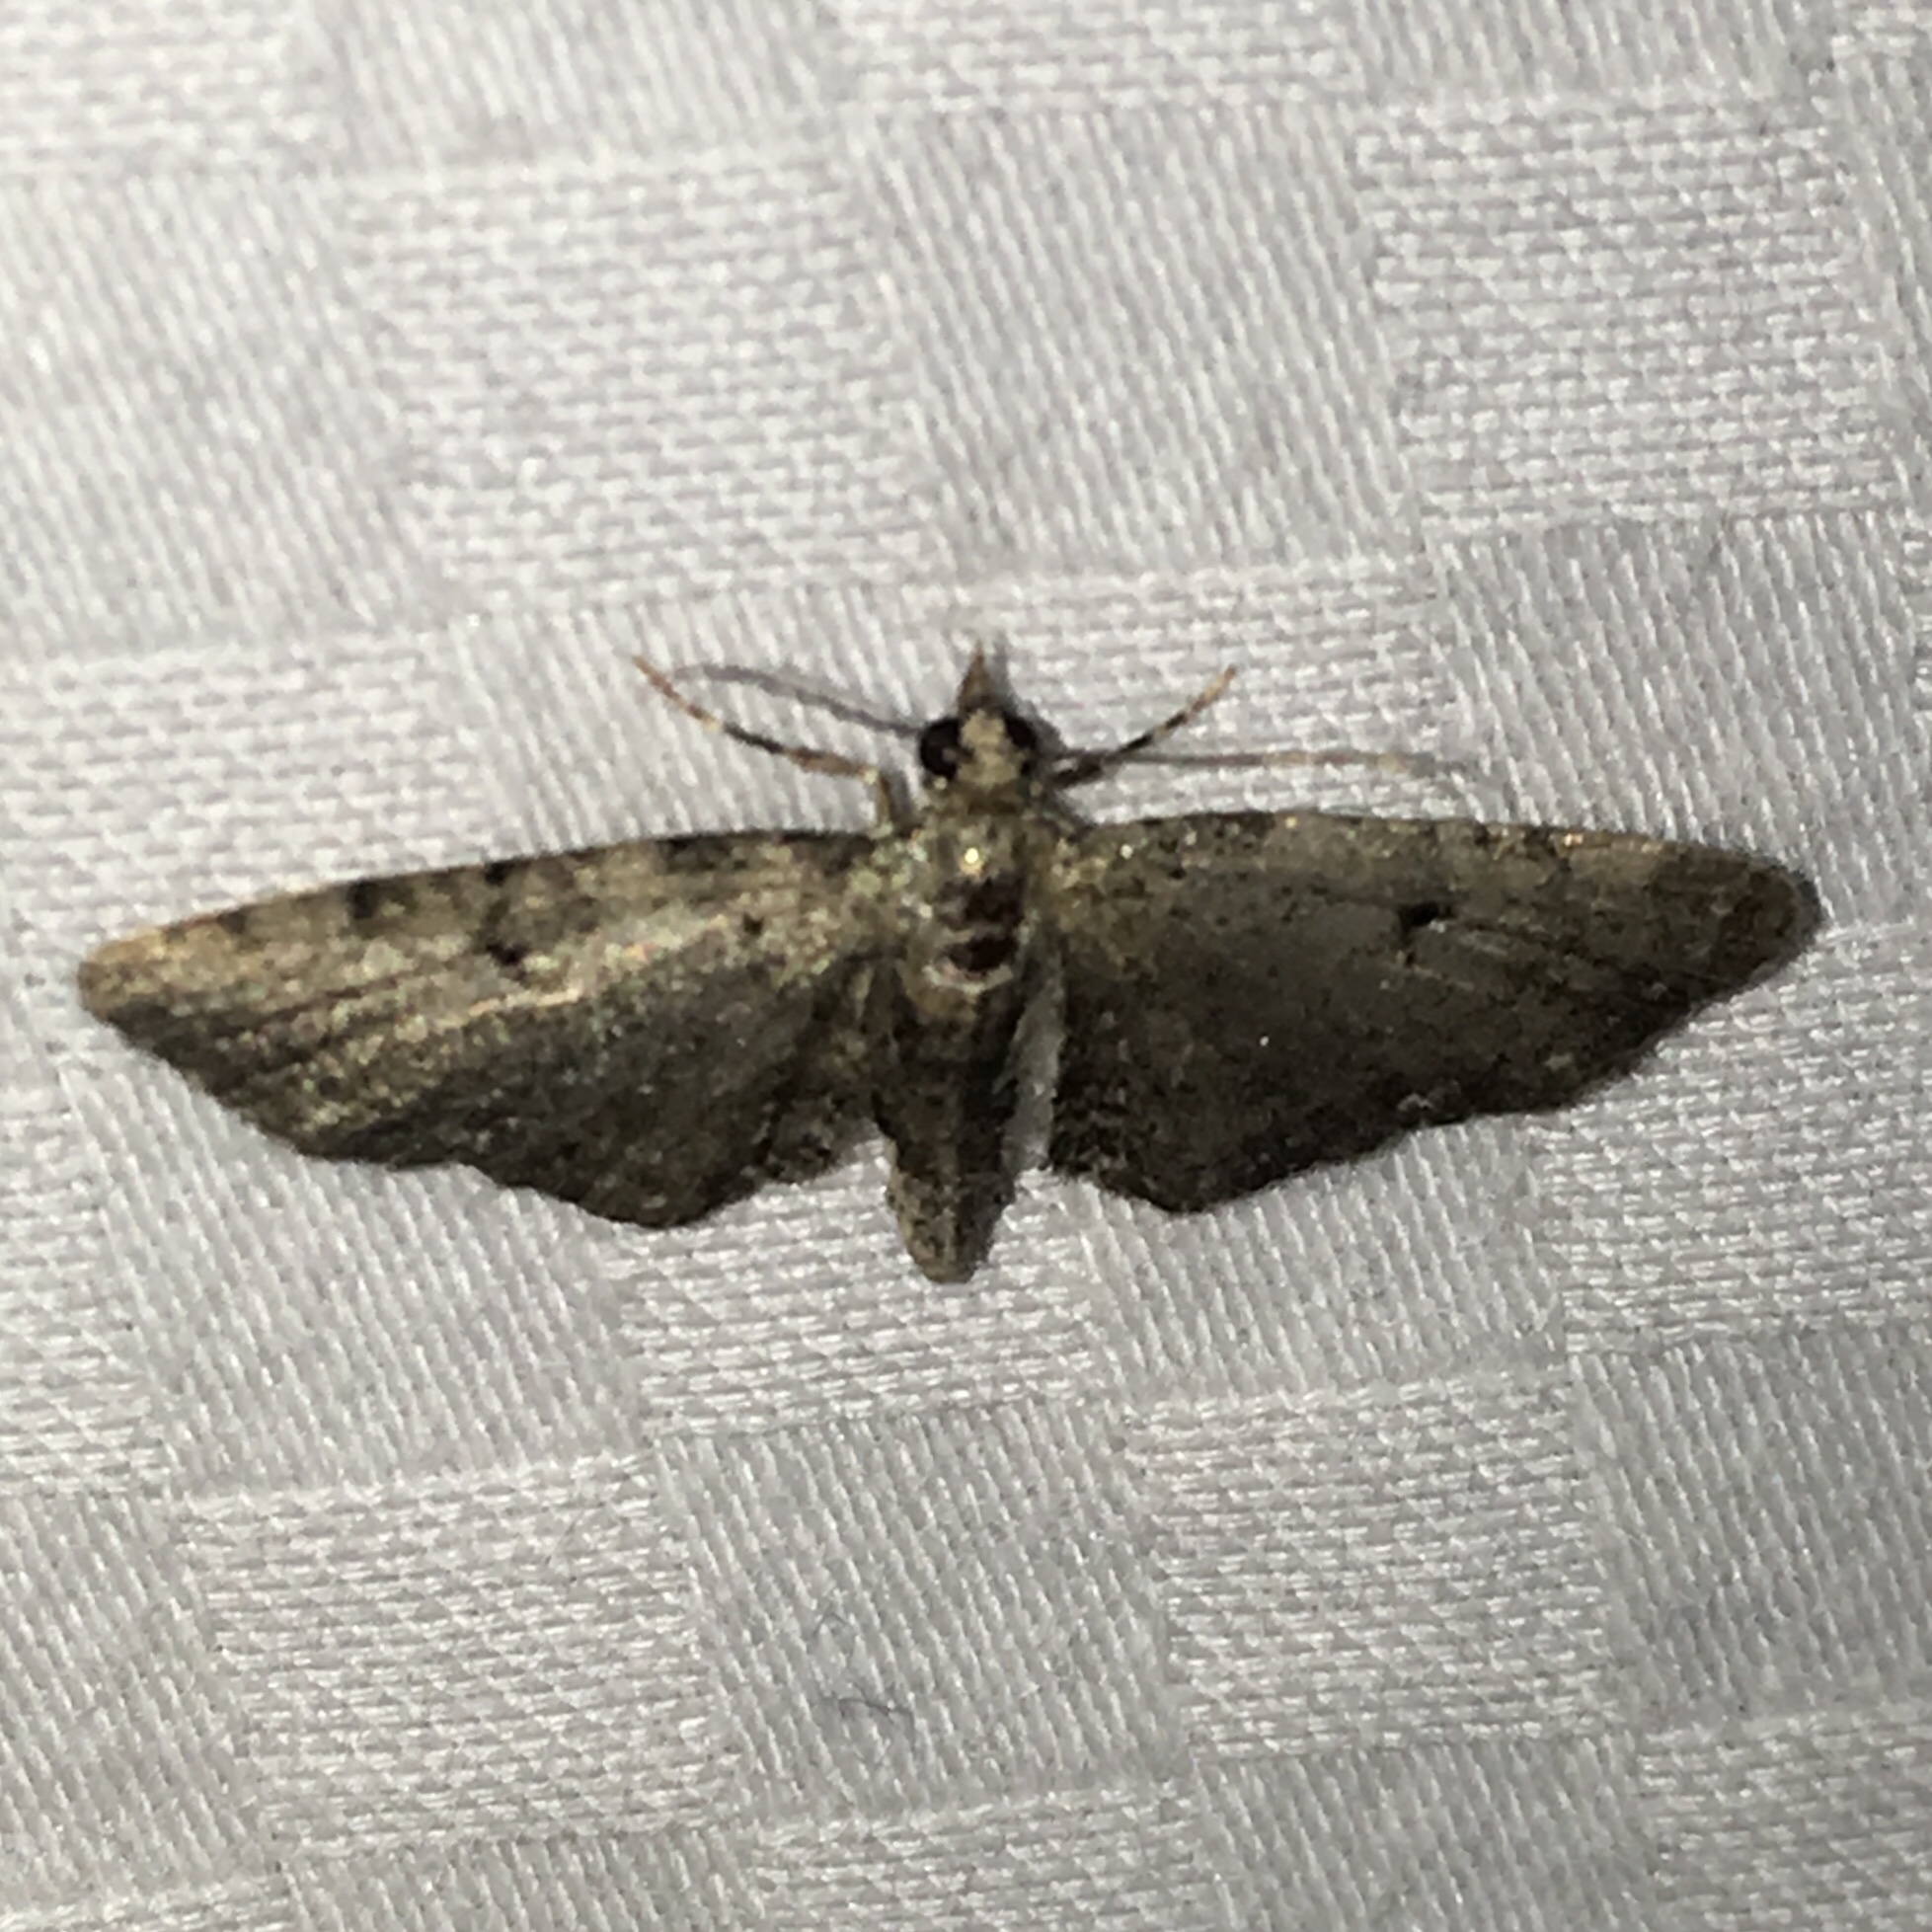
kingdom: Animalia
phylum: Arthropoda
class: Insecta
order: Lepidoptera
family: Geometridae
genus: Eupithecia
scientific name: Eupithecia miserulata
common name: Common eupithecia
